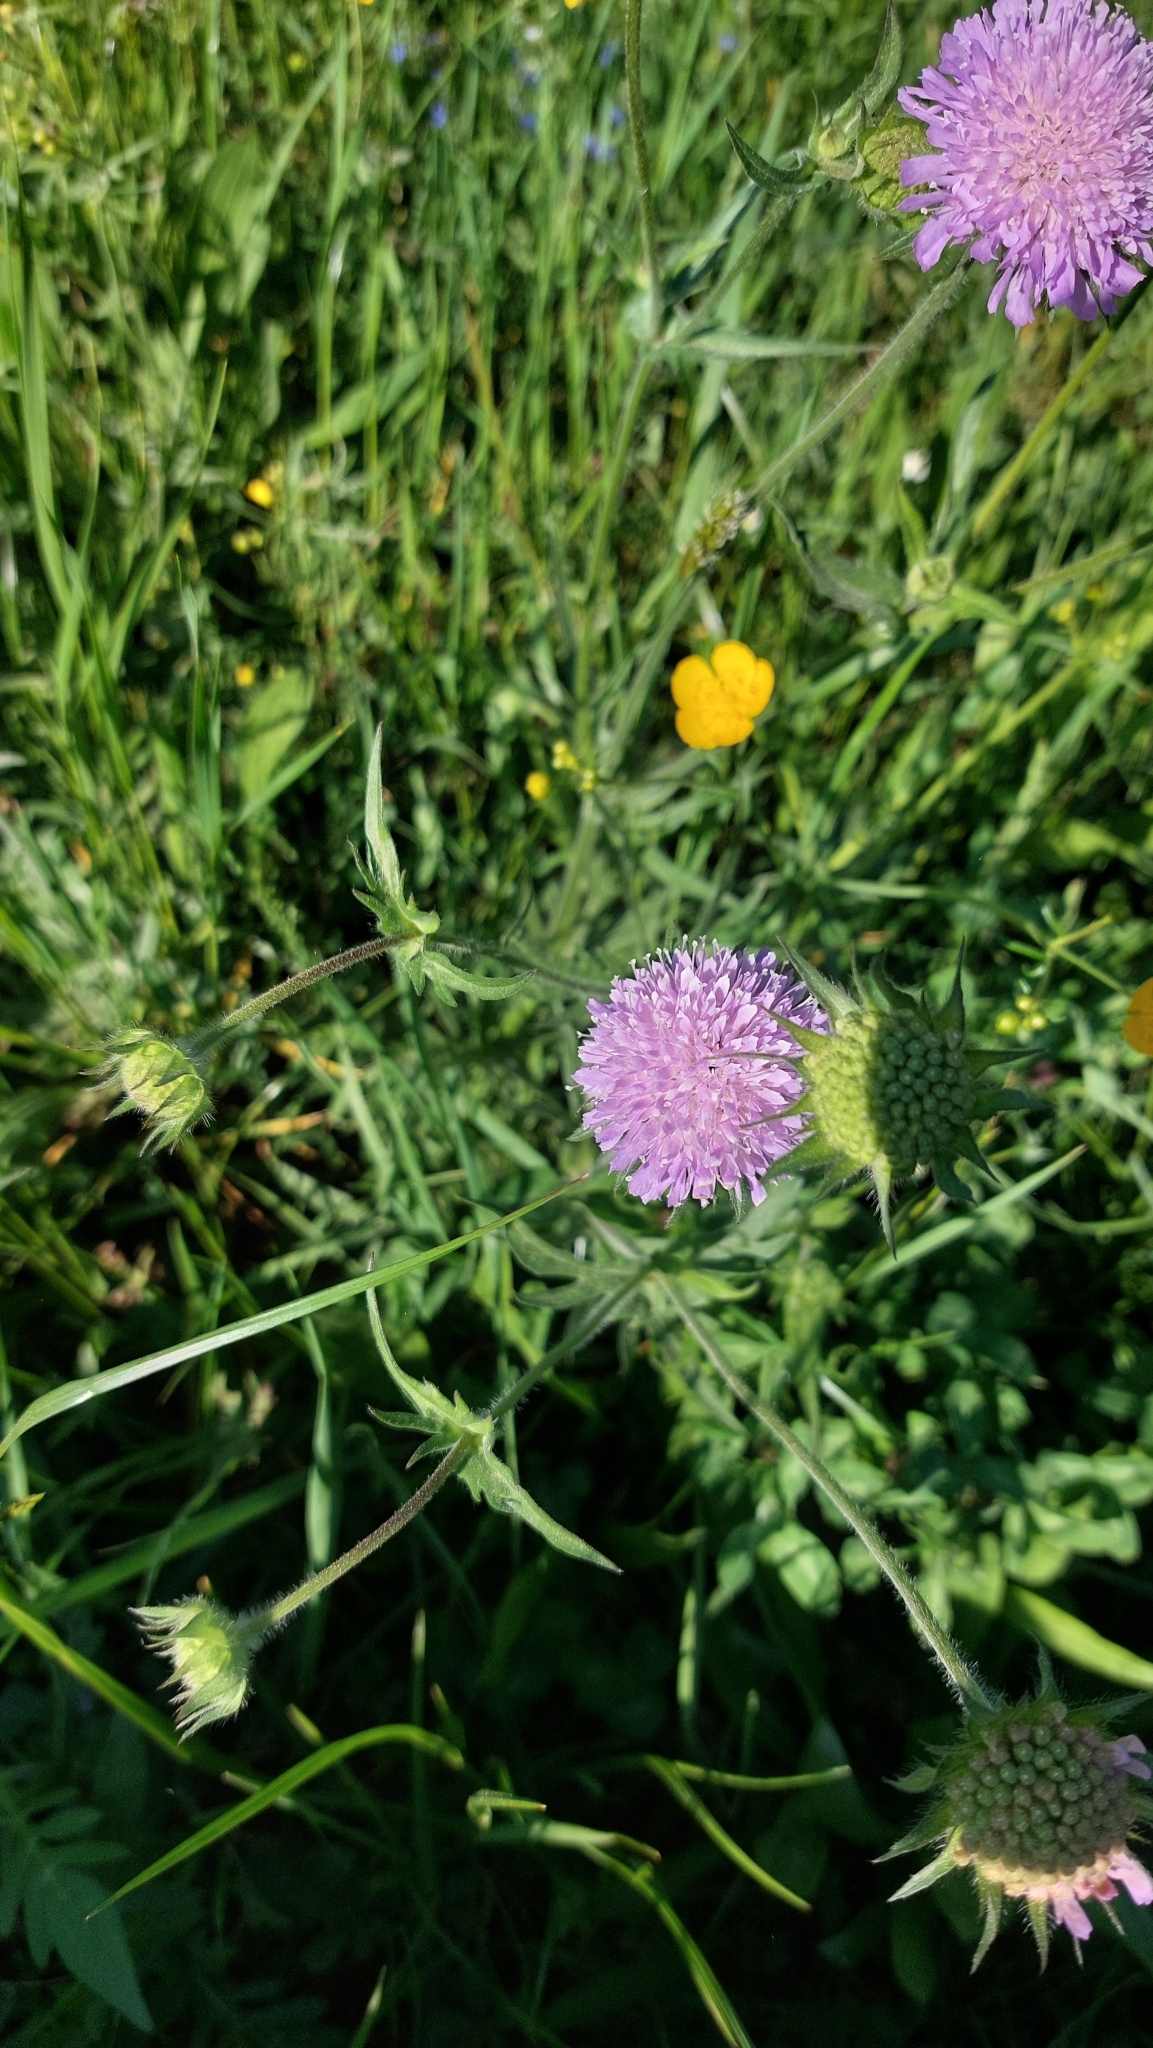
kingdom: Plantae
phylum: Tracheophyta
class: Magnoliopsida
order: Dipsacales
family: Caprifoliaceae
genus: Knautia
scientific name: Knautia arvensis
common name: Field scabiosa
